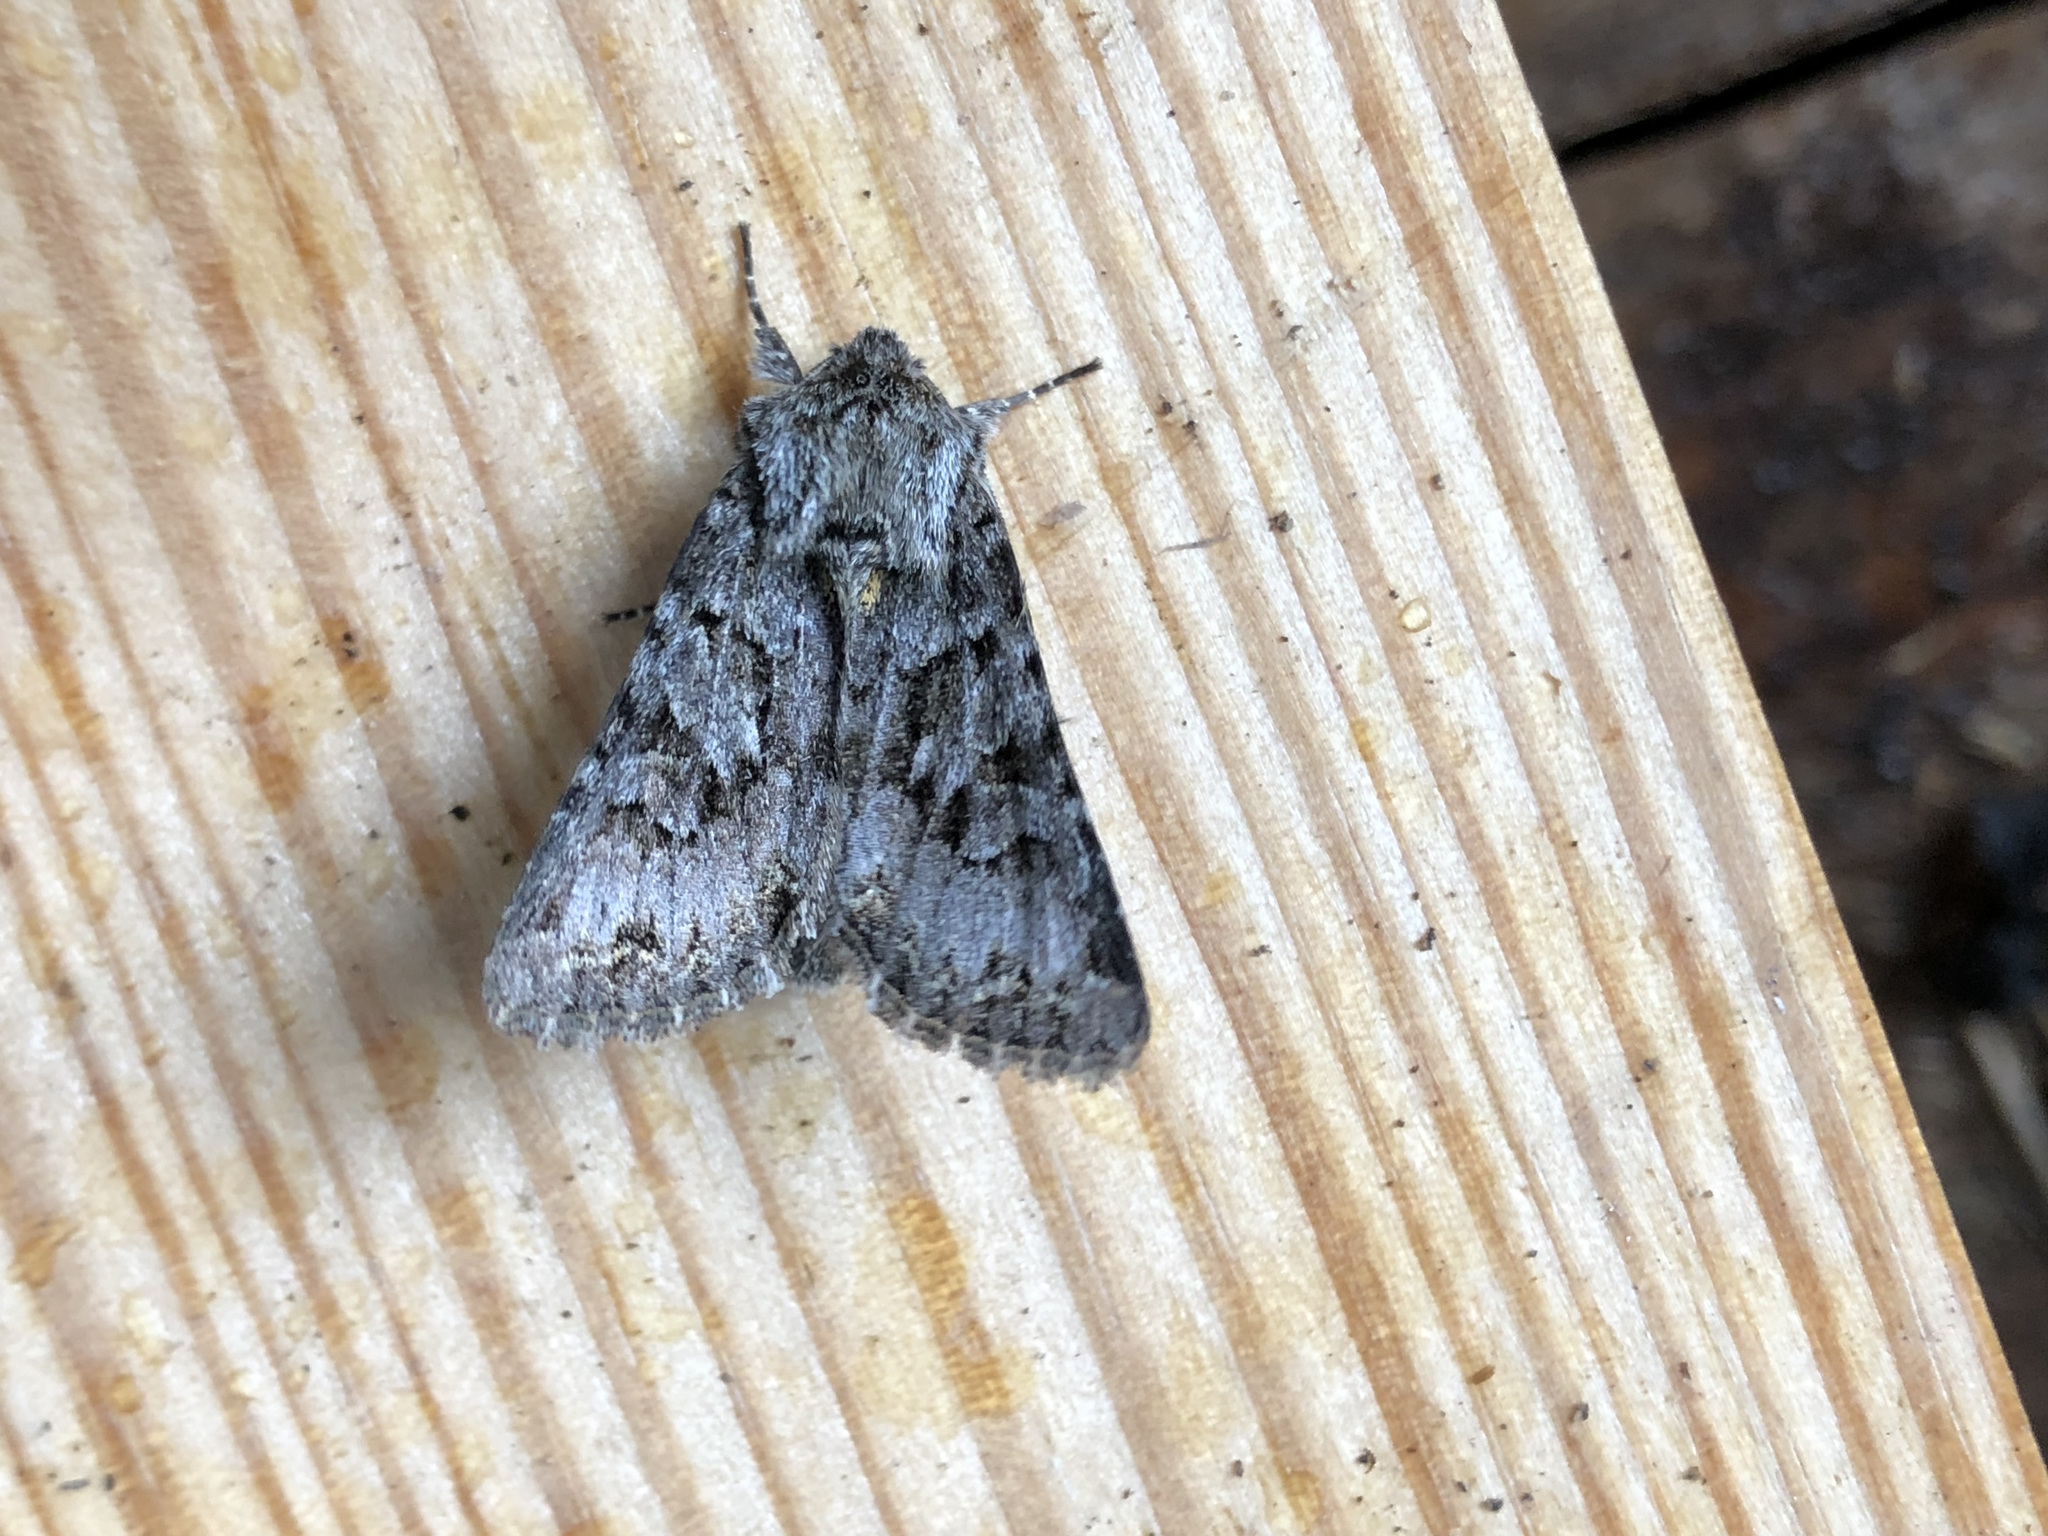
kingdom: Animalia
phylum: Arthropoda
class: Insecta
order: Lepidoptera
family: Noctuidae
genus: Hada
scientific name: Hada plebeja
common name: Shears
